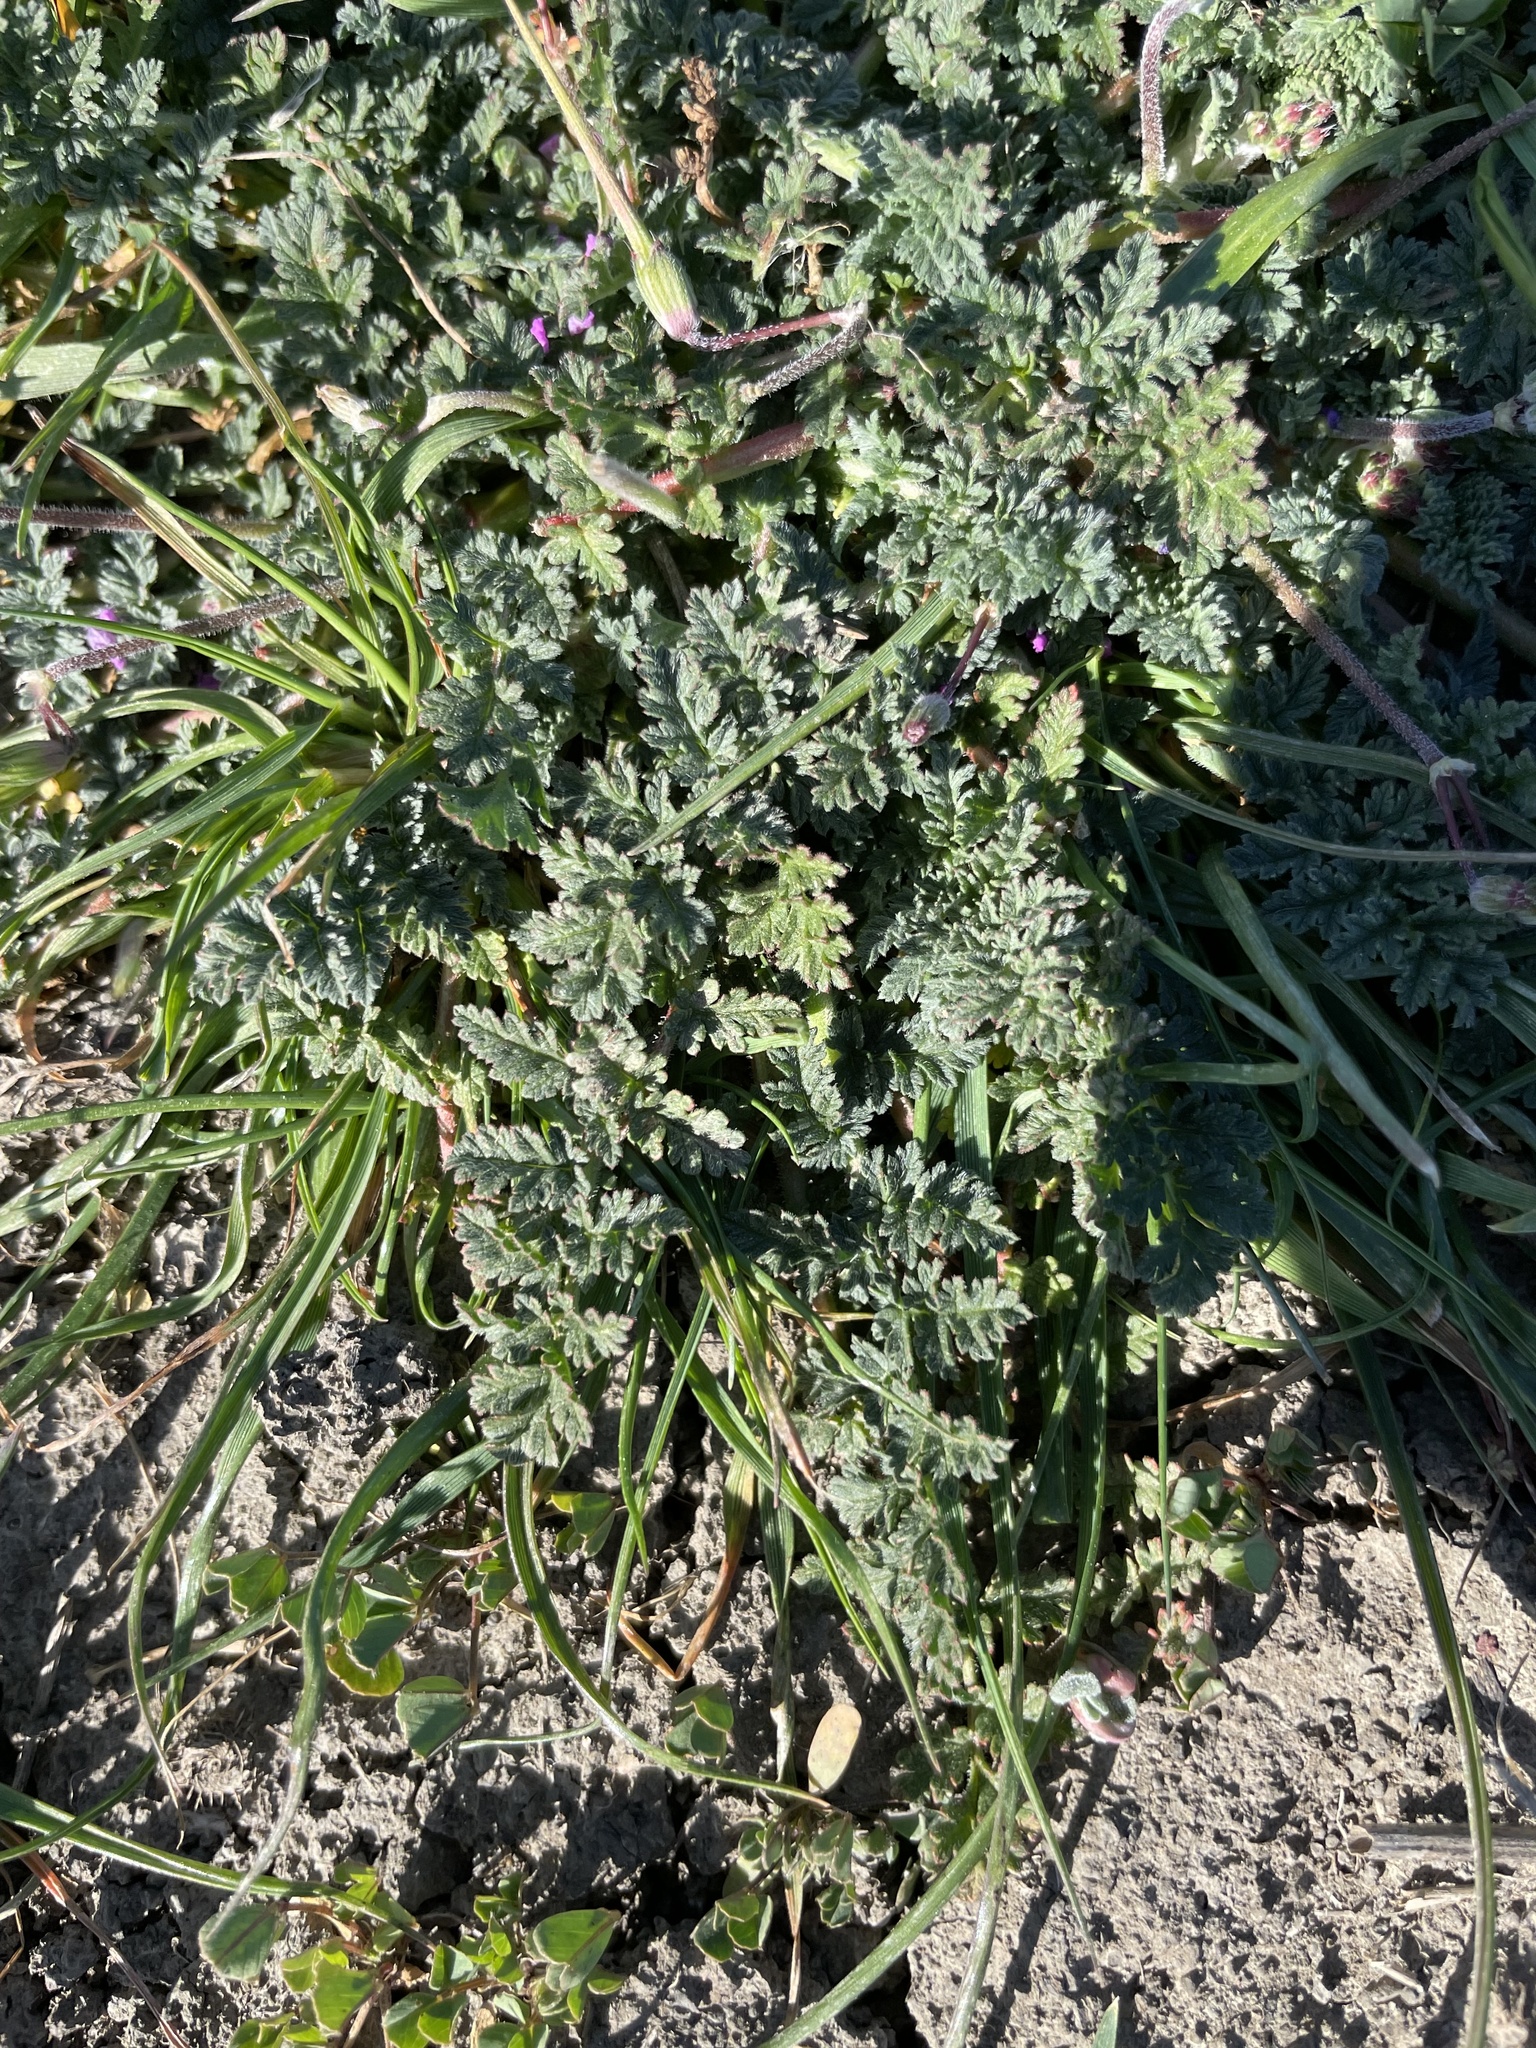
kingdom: Plantae
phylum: Tracheophyta
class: Magnoliopsida
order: Geraniales
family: Geraniaceae
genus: Erodium
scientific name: Erodium cicutarium
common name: Common stork's-bill
